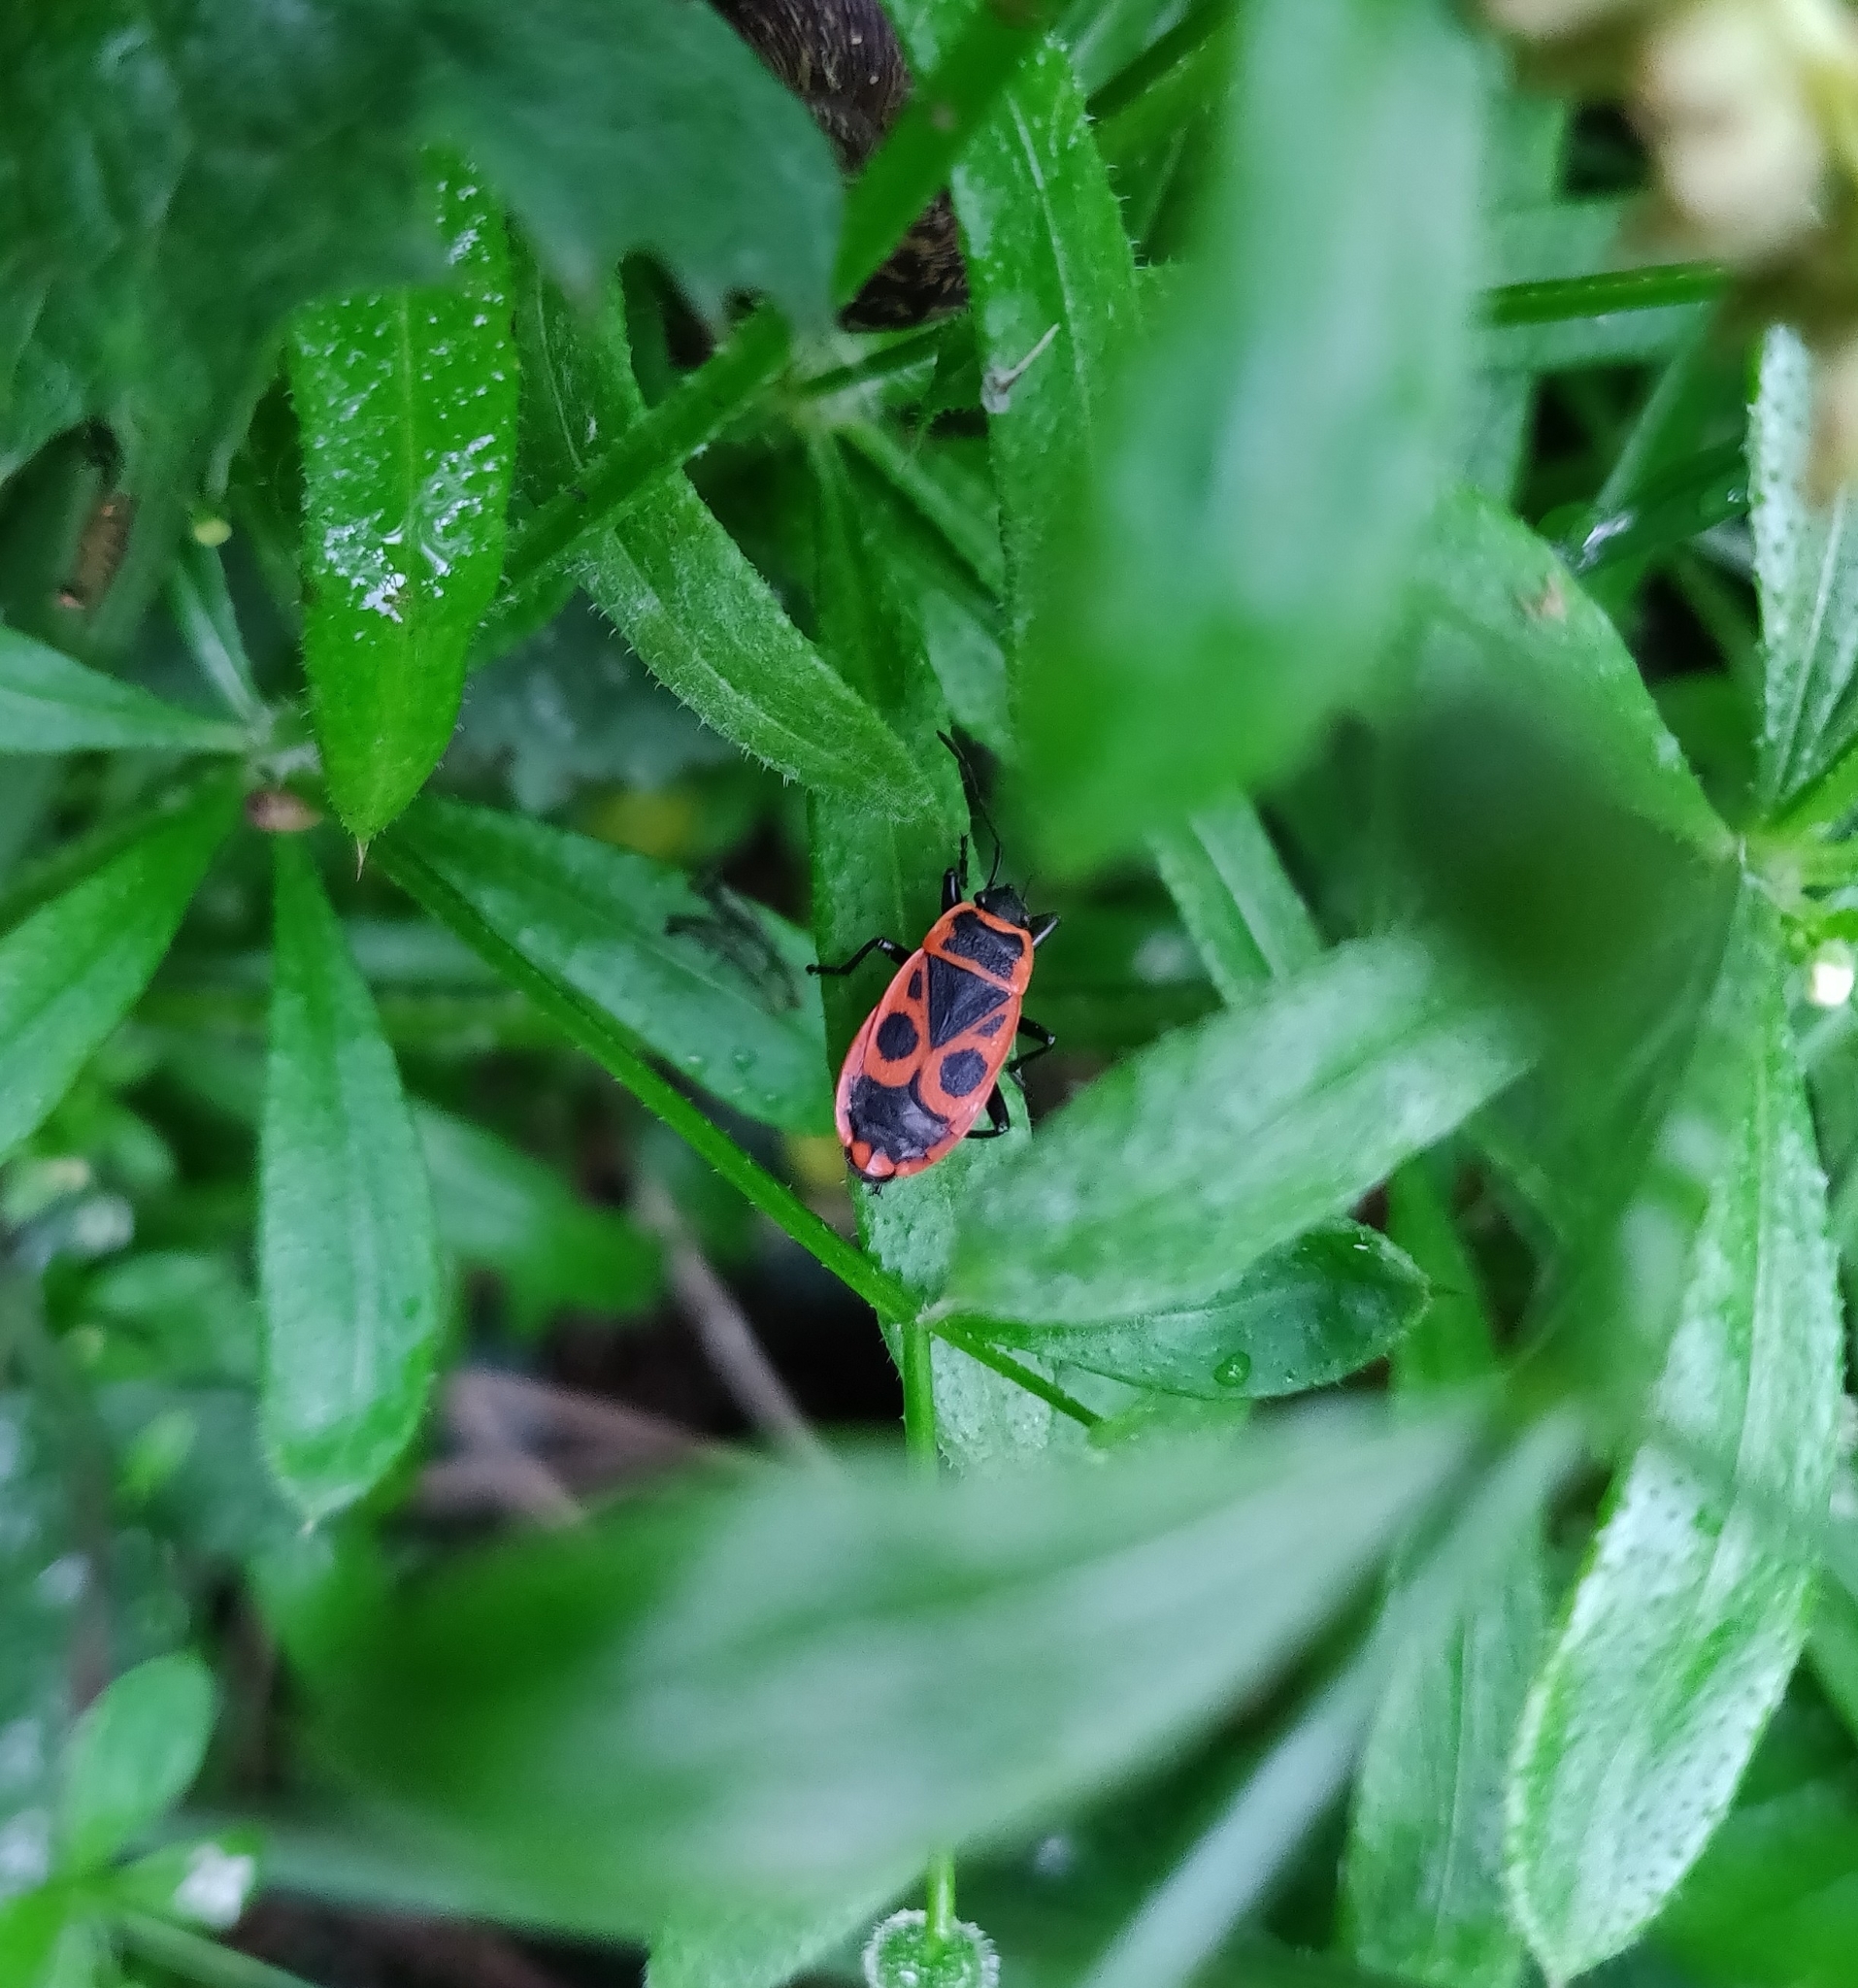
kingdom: Animalia
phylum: Arthropoda
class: Insecta
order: Hemiptera
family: Pyrrhocoridae
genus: Pyrrhocoris
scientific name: Pyrrhocoris apterus
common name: Firebug
